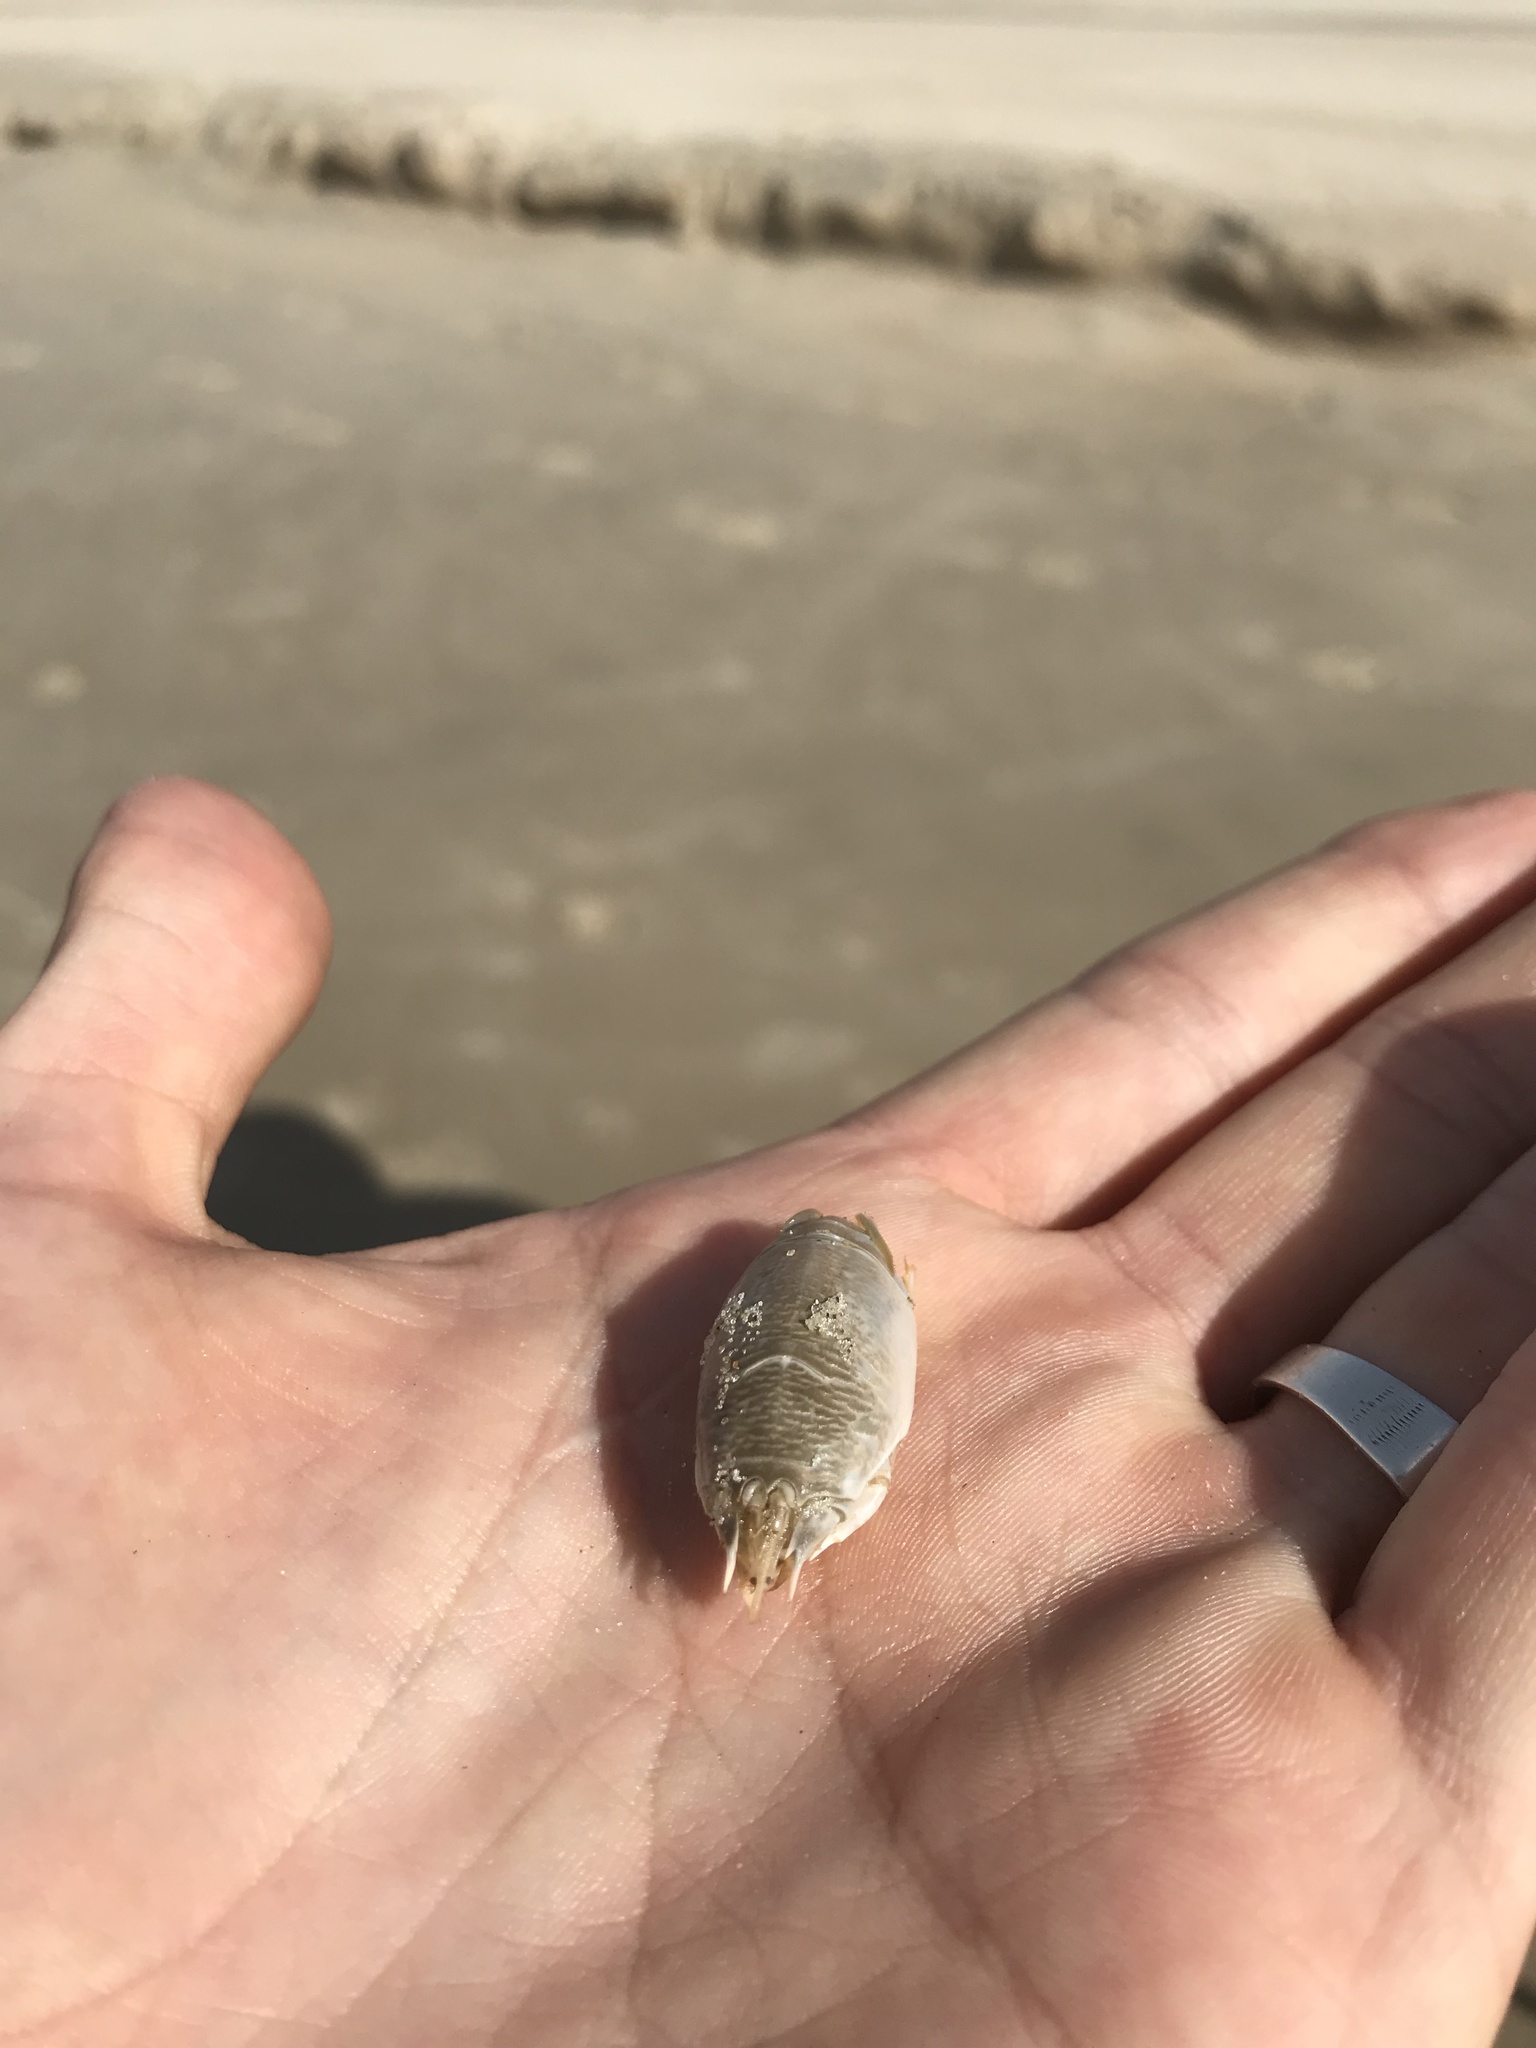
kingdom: Animalia
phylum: Arthropoda
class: Malacostraca
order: Decapoda
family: Hippidae
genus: Emerita
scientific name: Emerita brasiliensis
